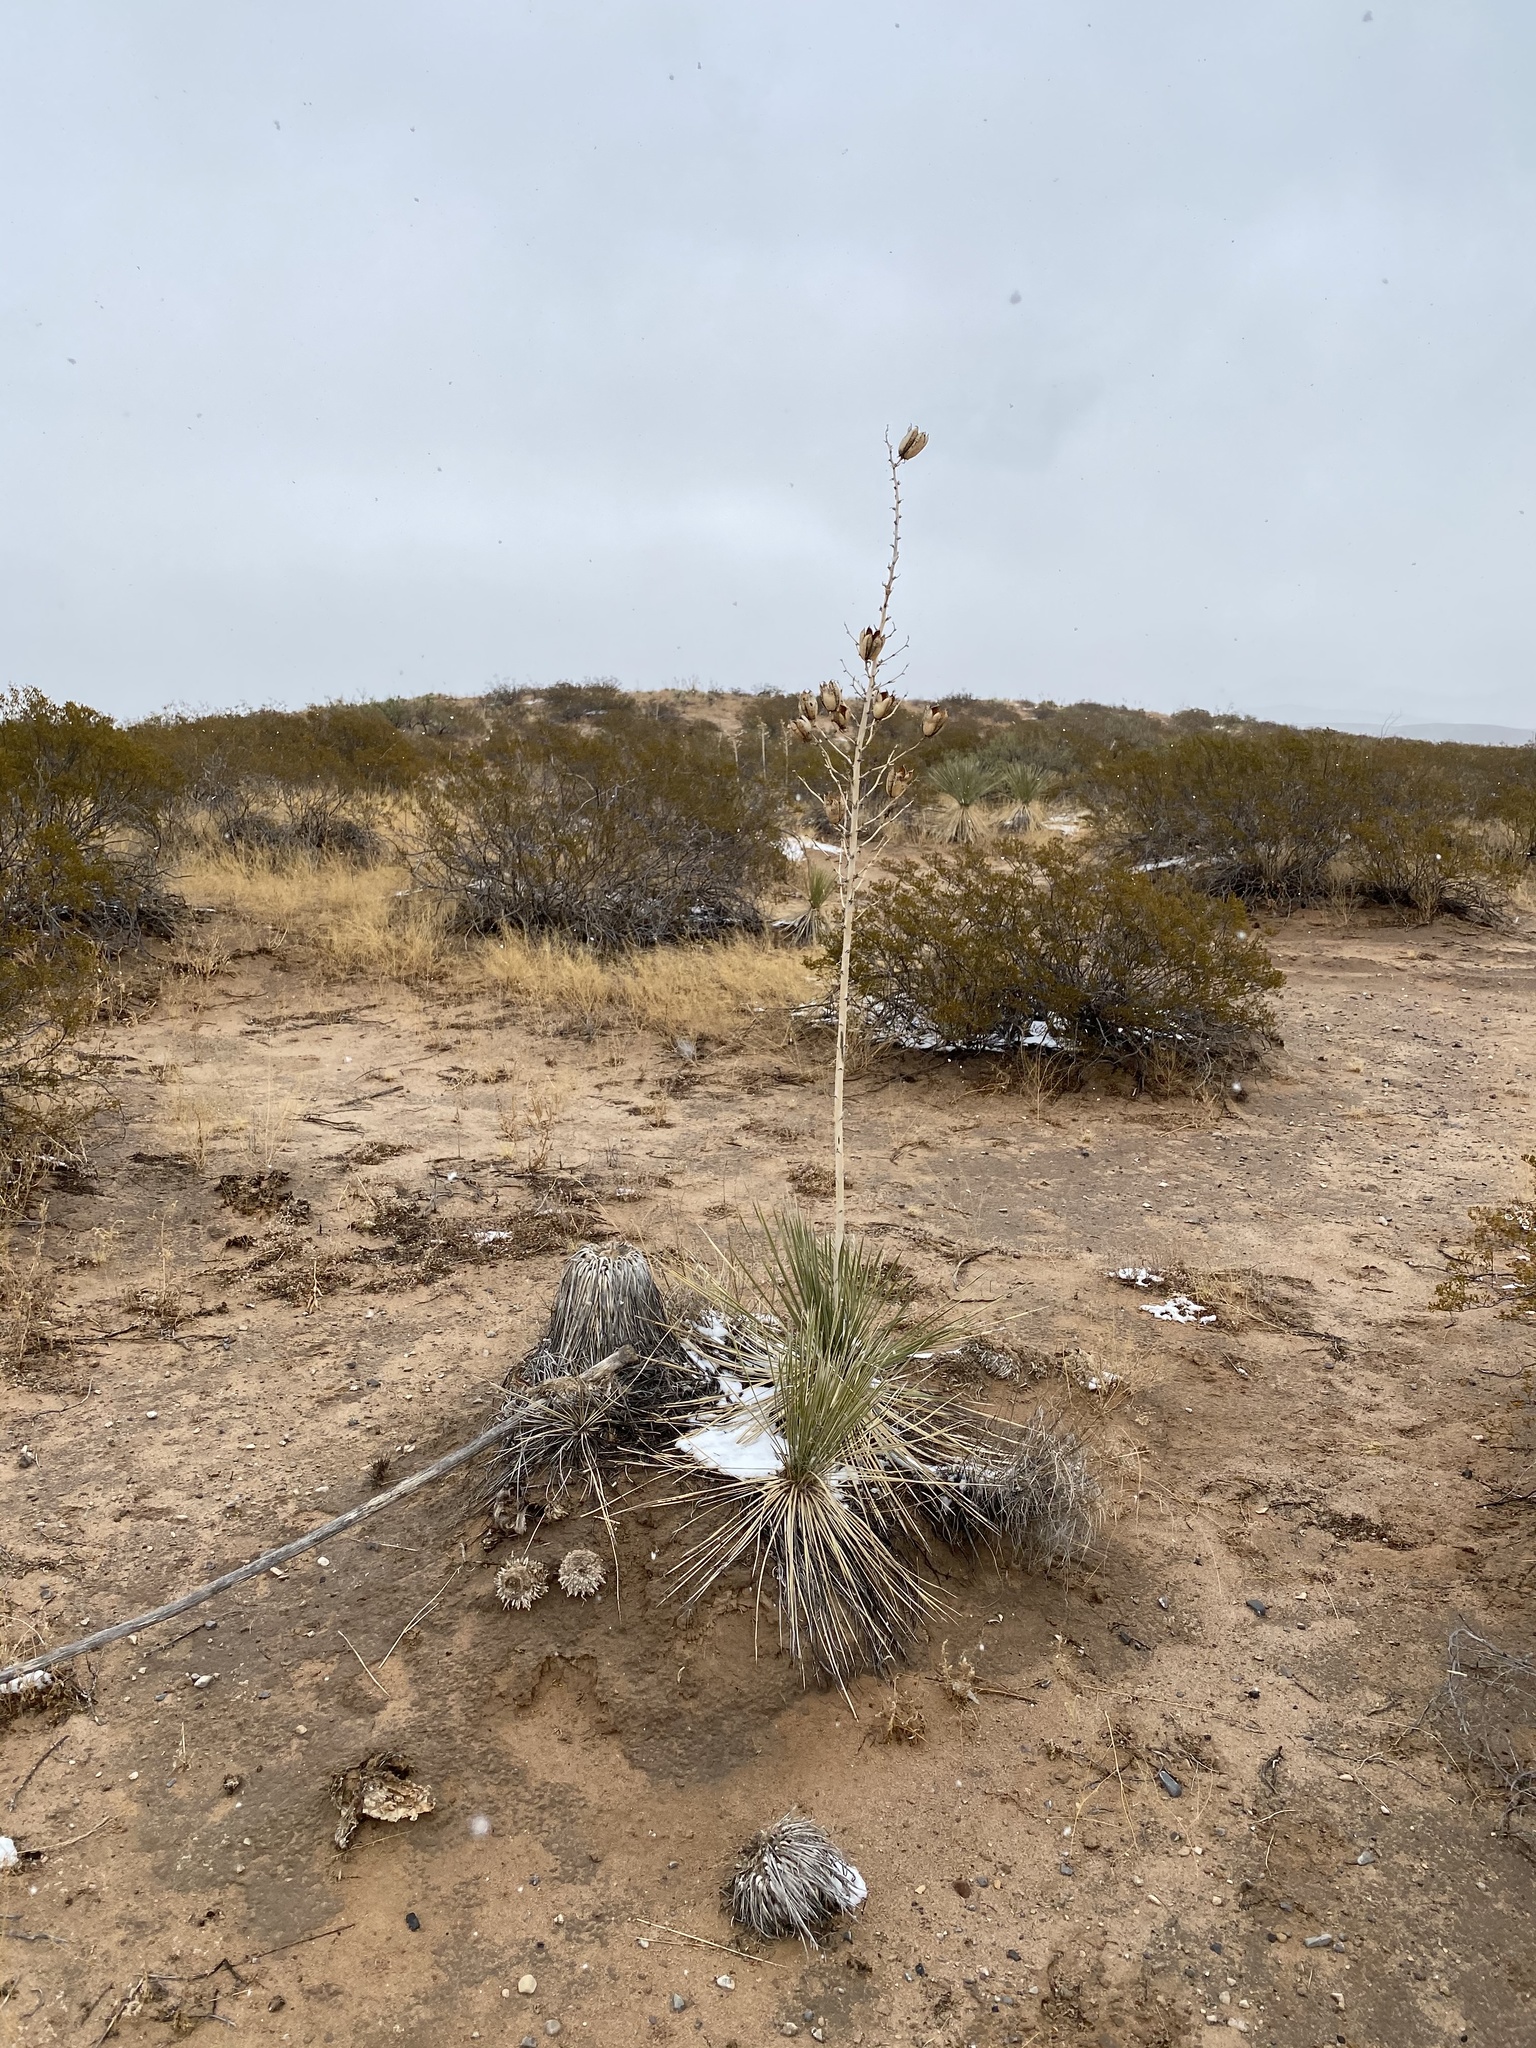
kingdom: Plantae
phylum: Tracheophyta
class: Liliopsida
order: Asparagales
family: Asparagaceae
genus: Yucca
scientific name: Yucca elata
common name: Palmella
